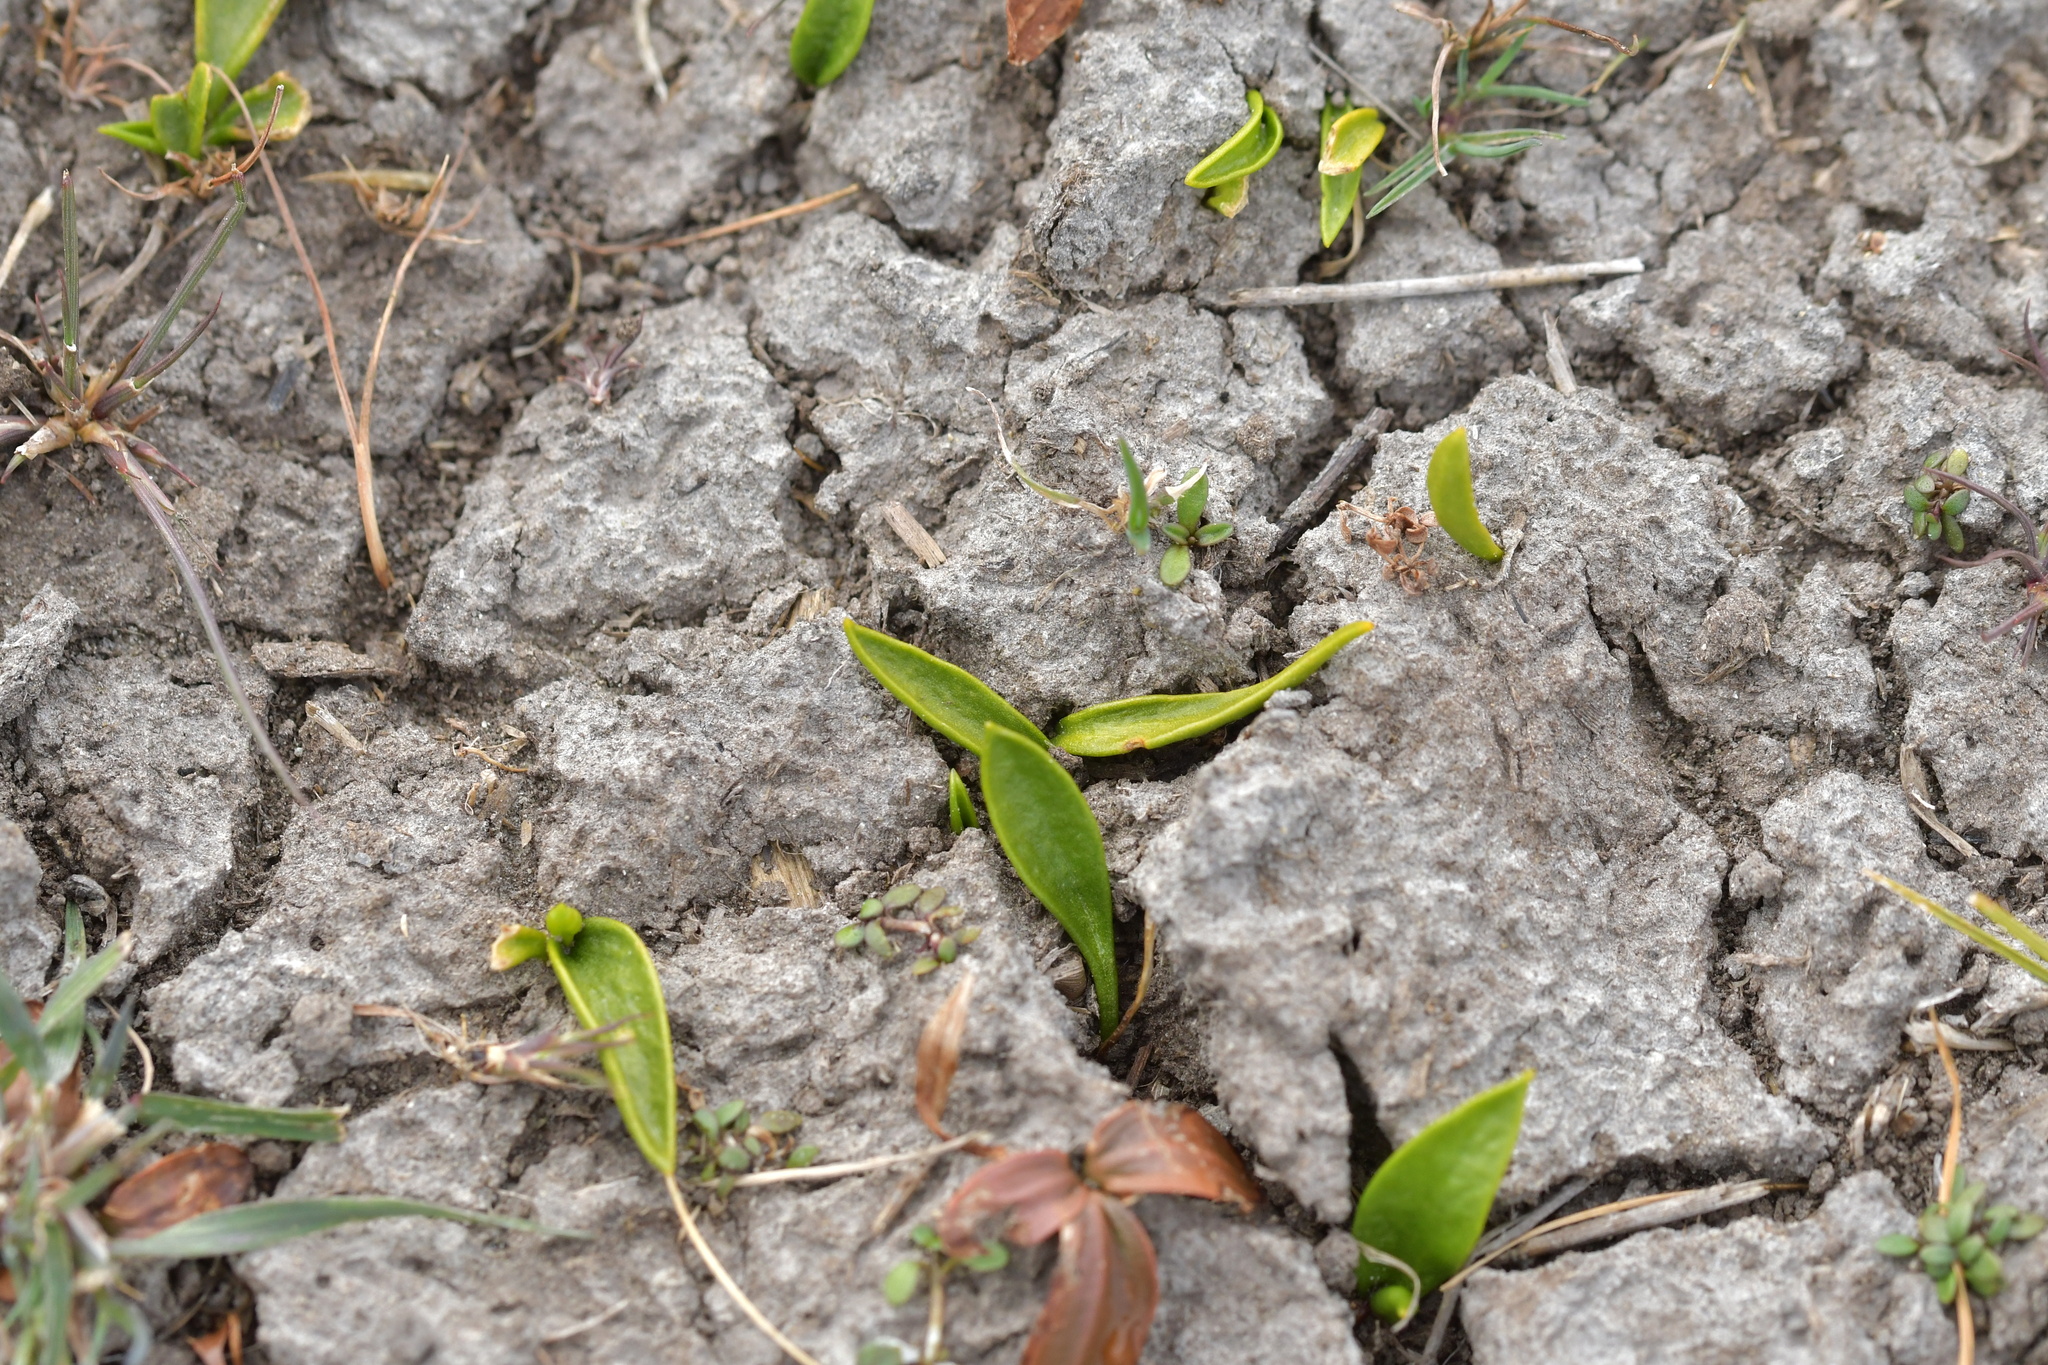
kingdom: Plantae
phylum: Tracheophyta
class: Polypodiopsida
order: Ophioglossales
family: Ophioglossaceae
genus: Ophioglossum
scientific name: Ophioglossum coriaceum
